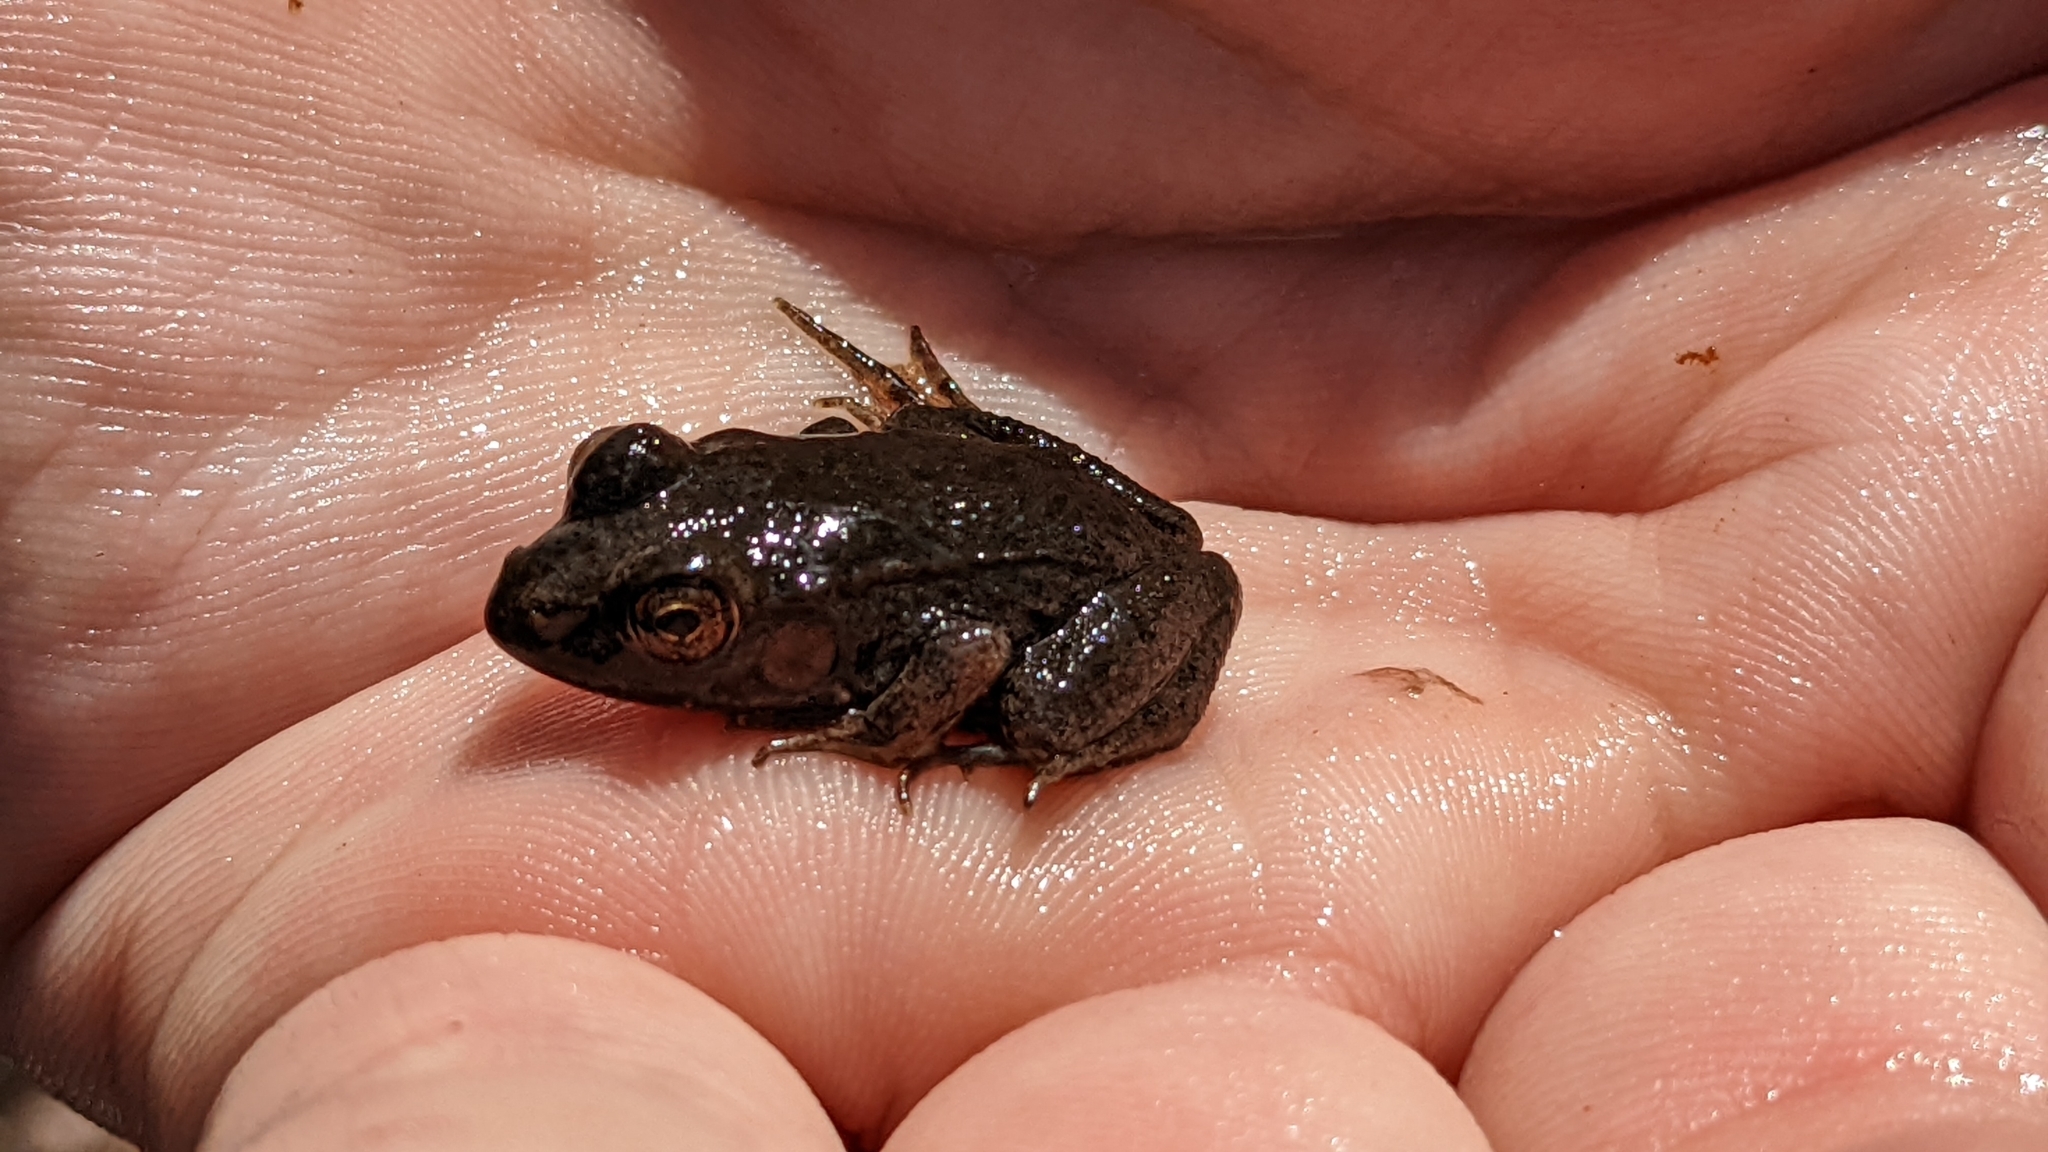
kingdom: Animalia
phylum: Chordata
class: Amphibia
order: Anura
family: Ranidae
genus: Lithobates
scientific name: Lithobates clamitans
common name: Green frog
